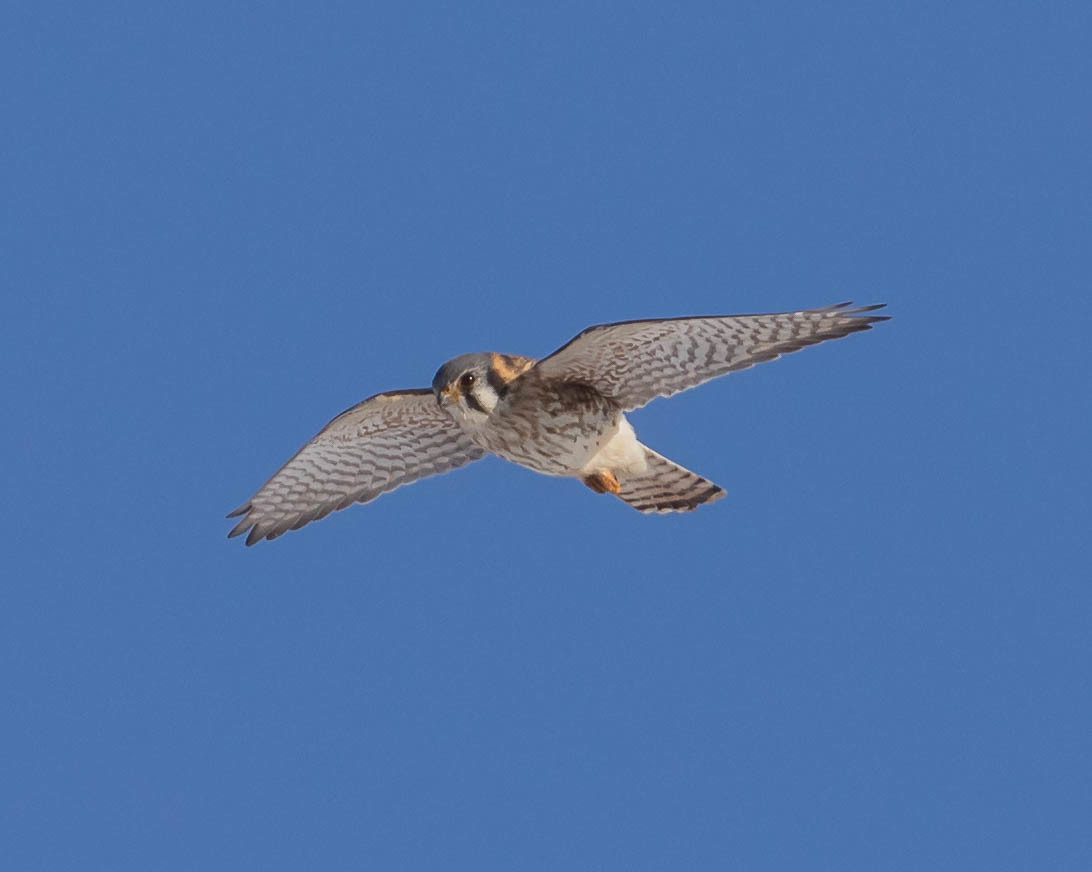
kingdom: Animalia
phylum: Chordata
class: Aves
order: Falconiformes
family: Falconidae
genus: Falco
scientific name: Falco sparverius
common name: American kestrel
